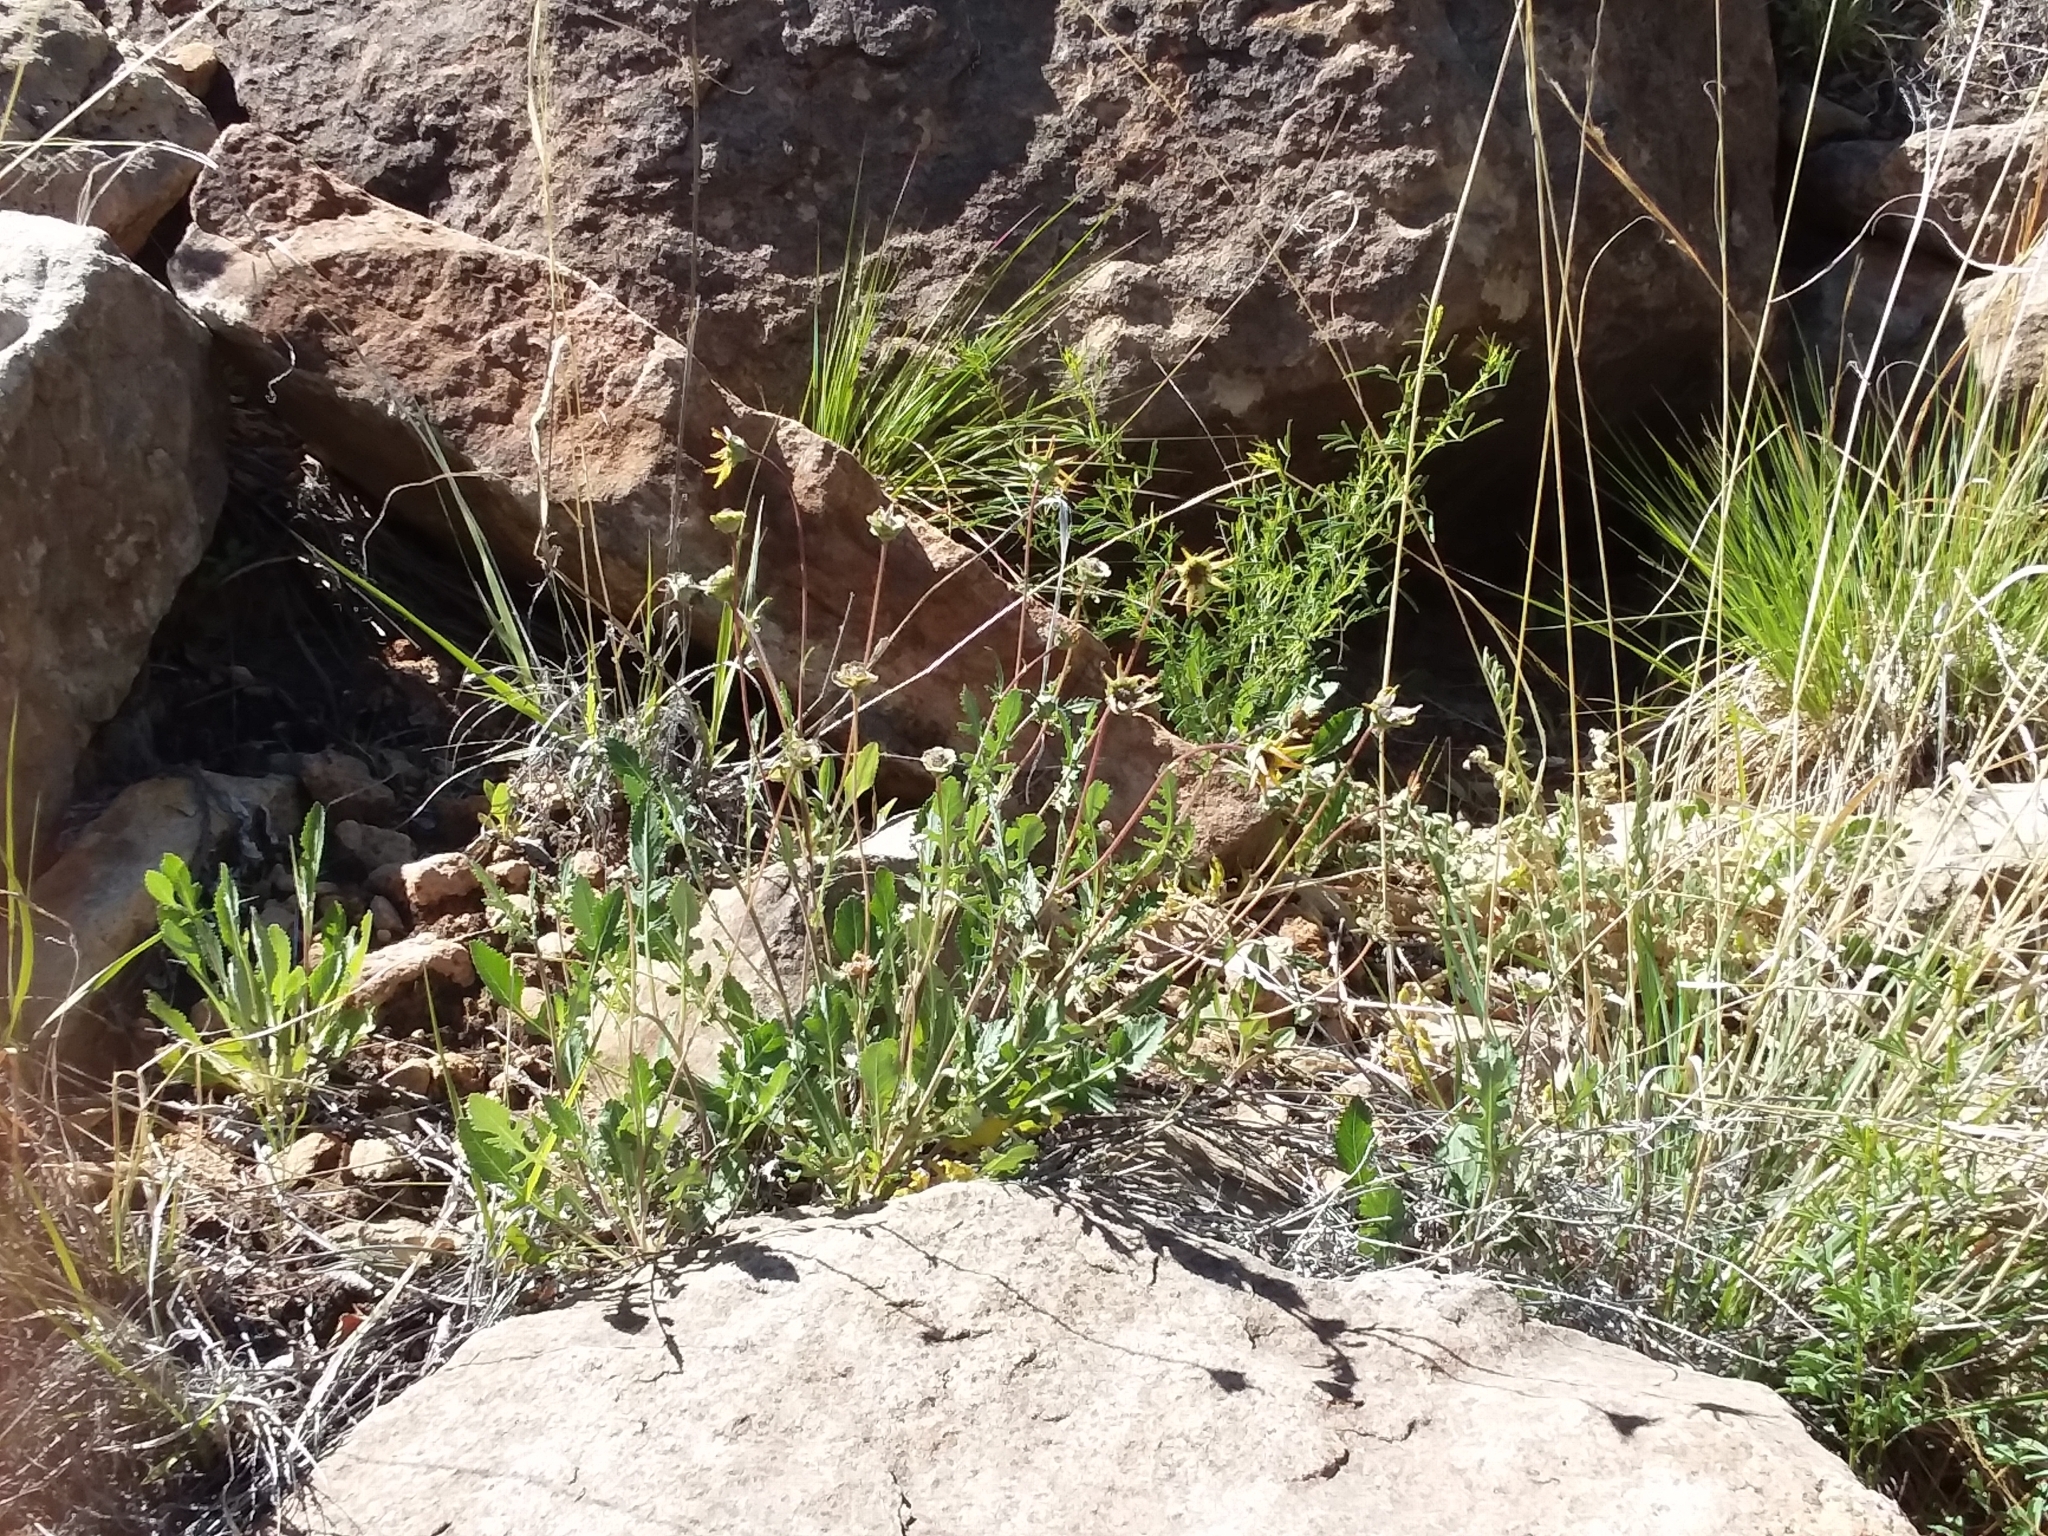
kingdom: Plantae
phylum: Tracheophyta
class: Magnoliopsida
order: Asterales
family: Asteraceae
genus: Berlandiera
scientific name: Berlandiera lyrata
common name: Chocolate-flower
